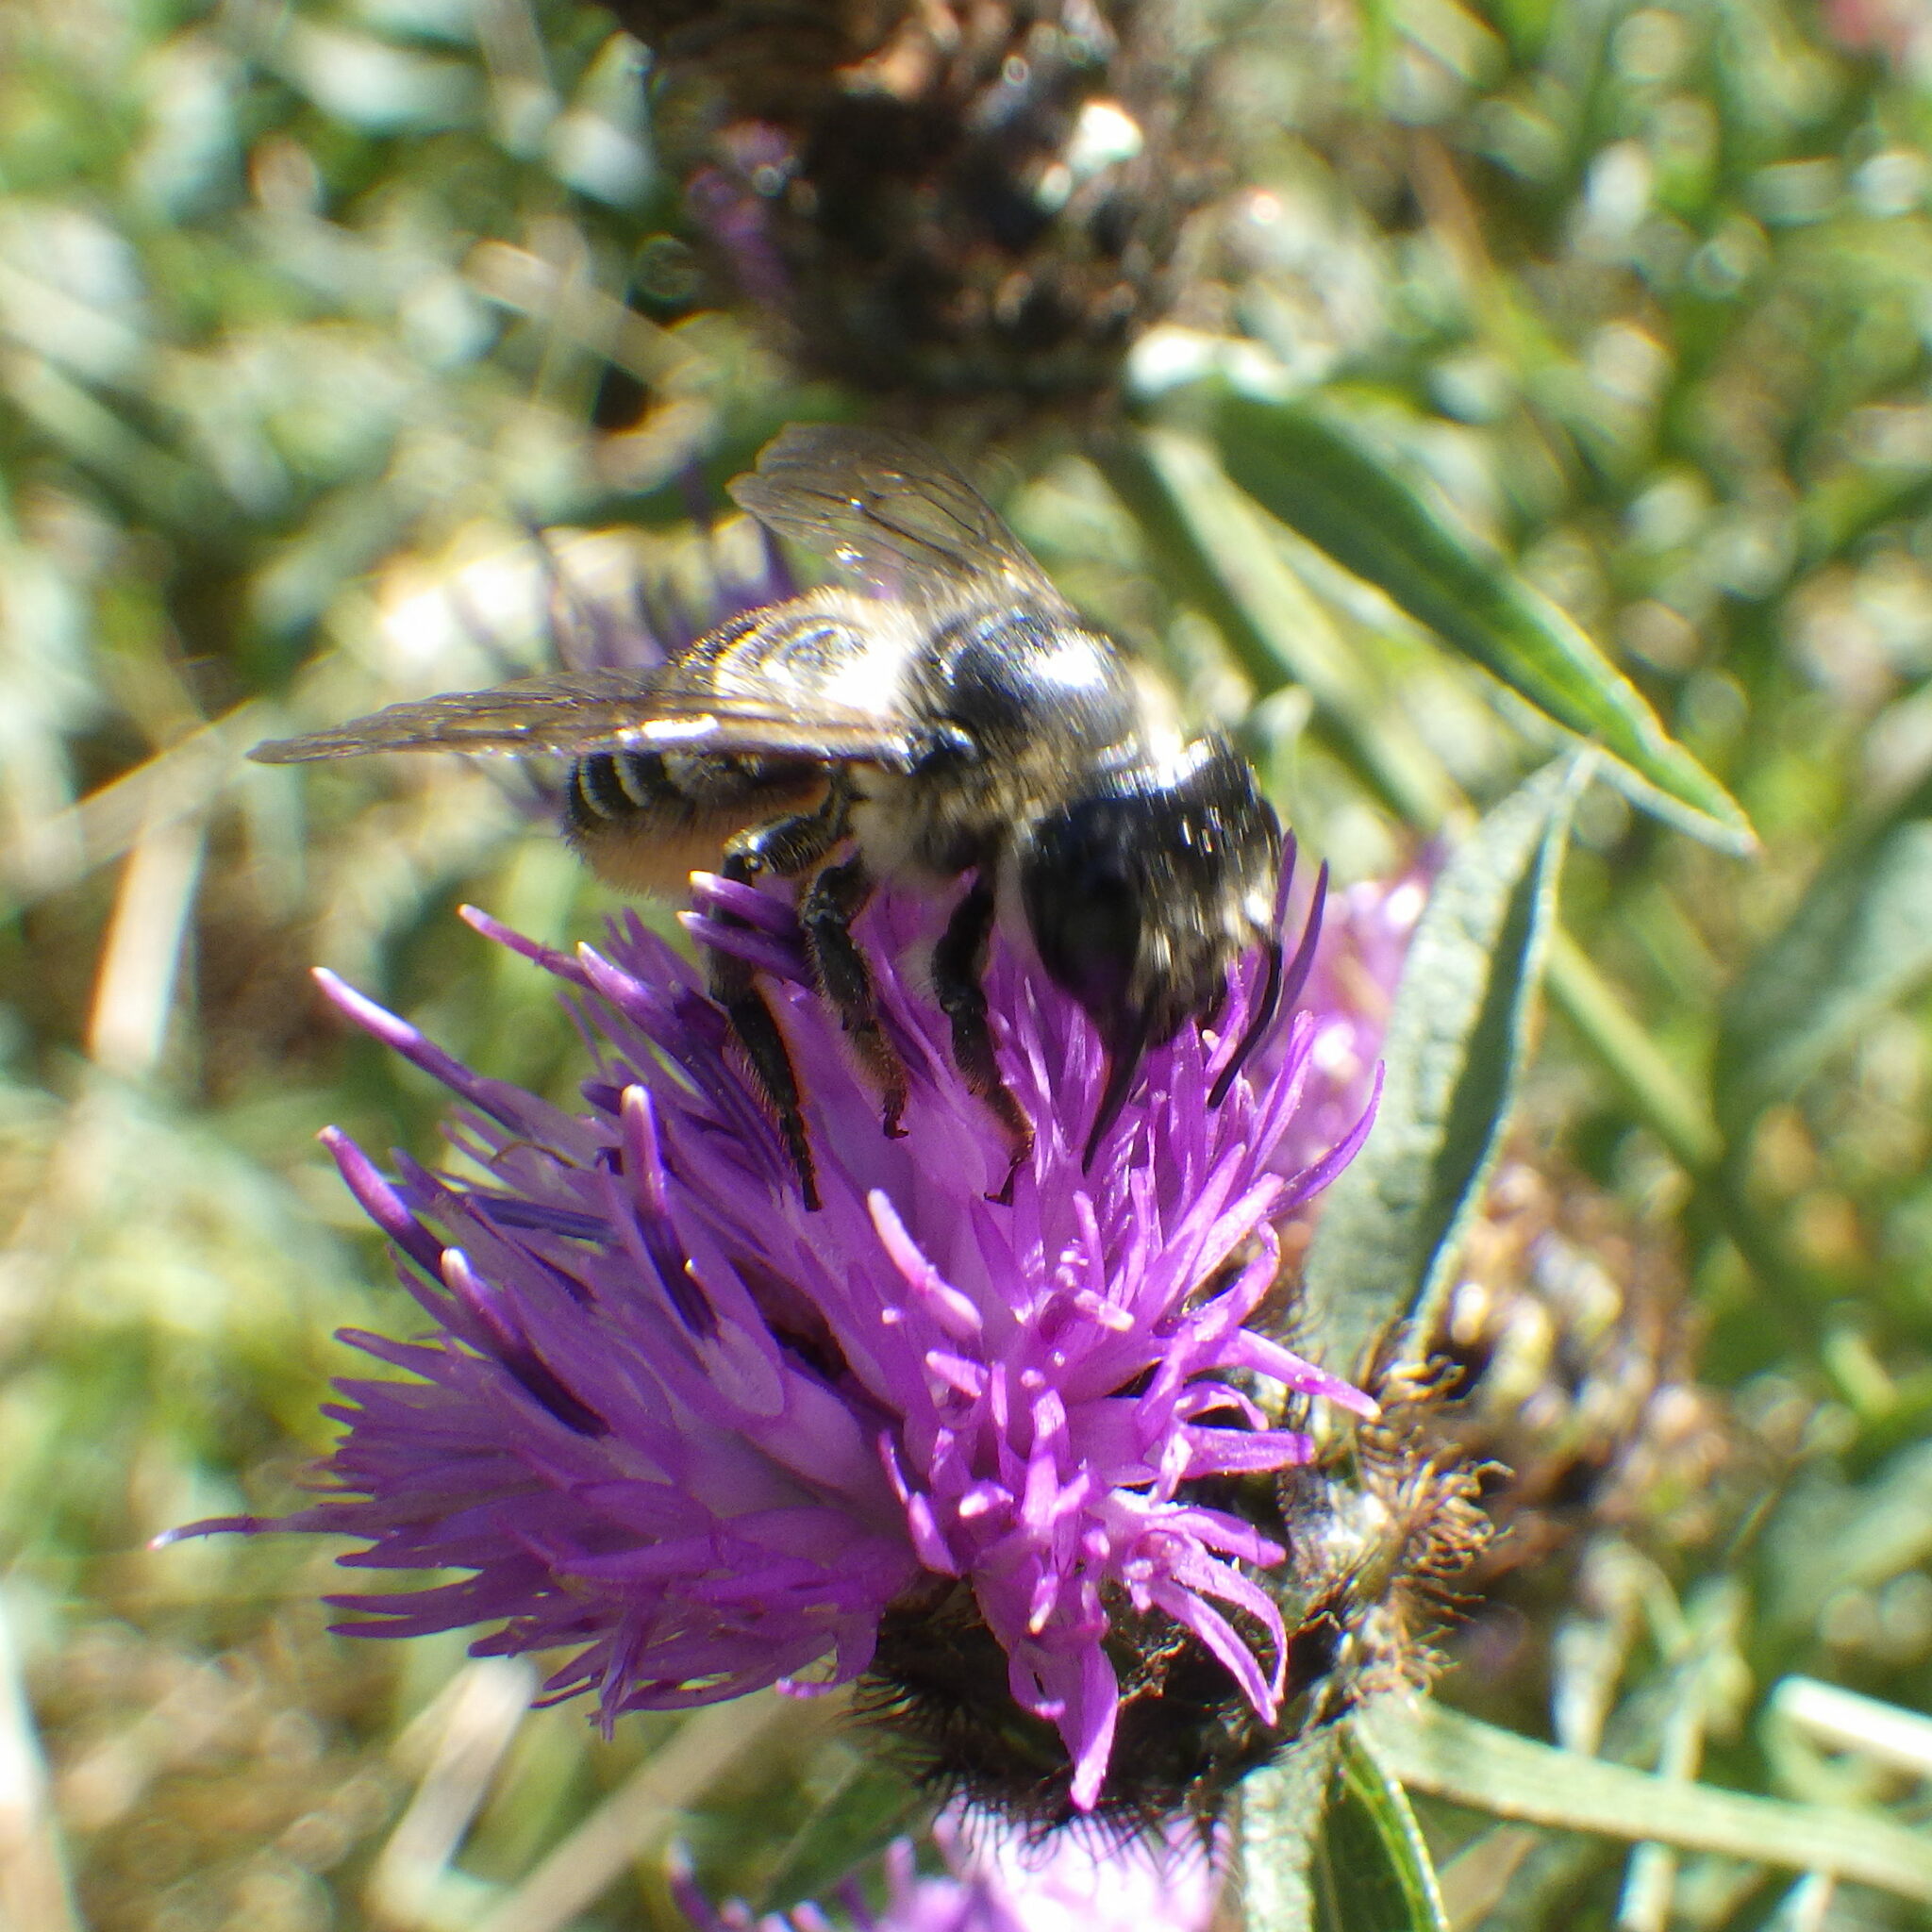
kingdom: Animalia
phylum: Arthropoda
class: Insecta
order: Hymenoptera
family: Megachilidae
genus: Megachile
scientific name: Megachile inermis
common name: Unarmed leafcutter bee
